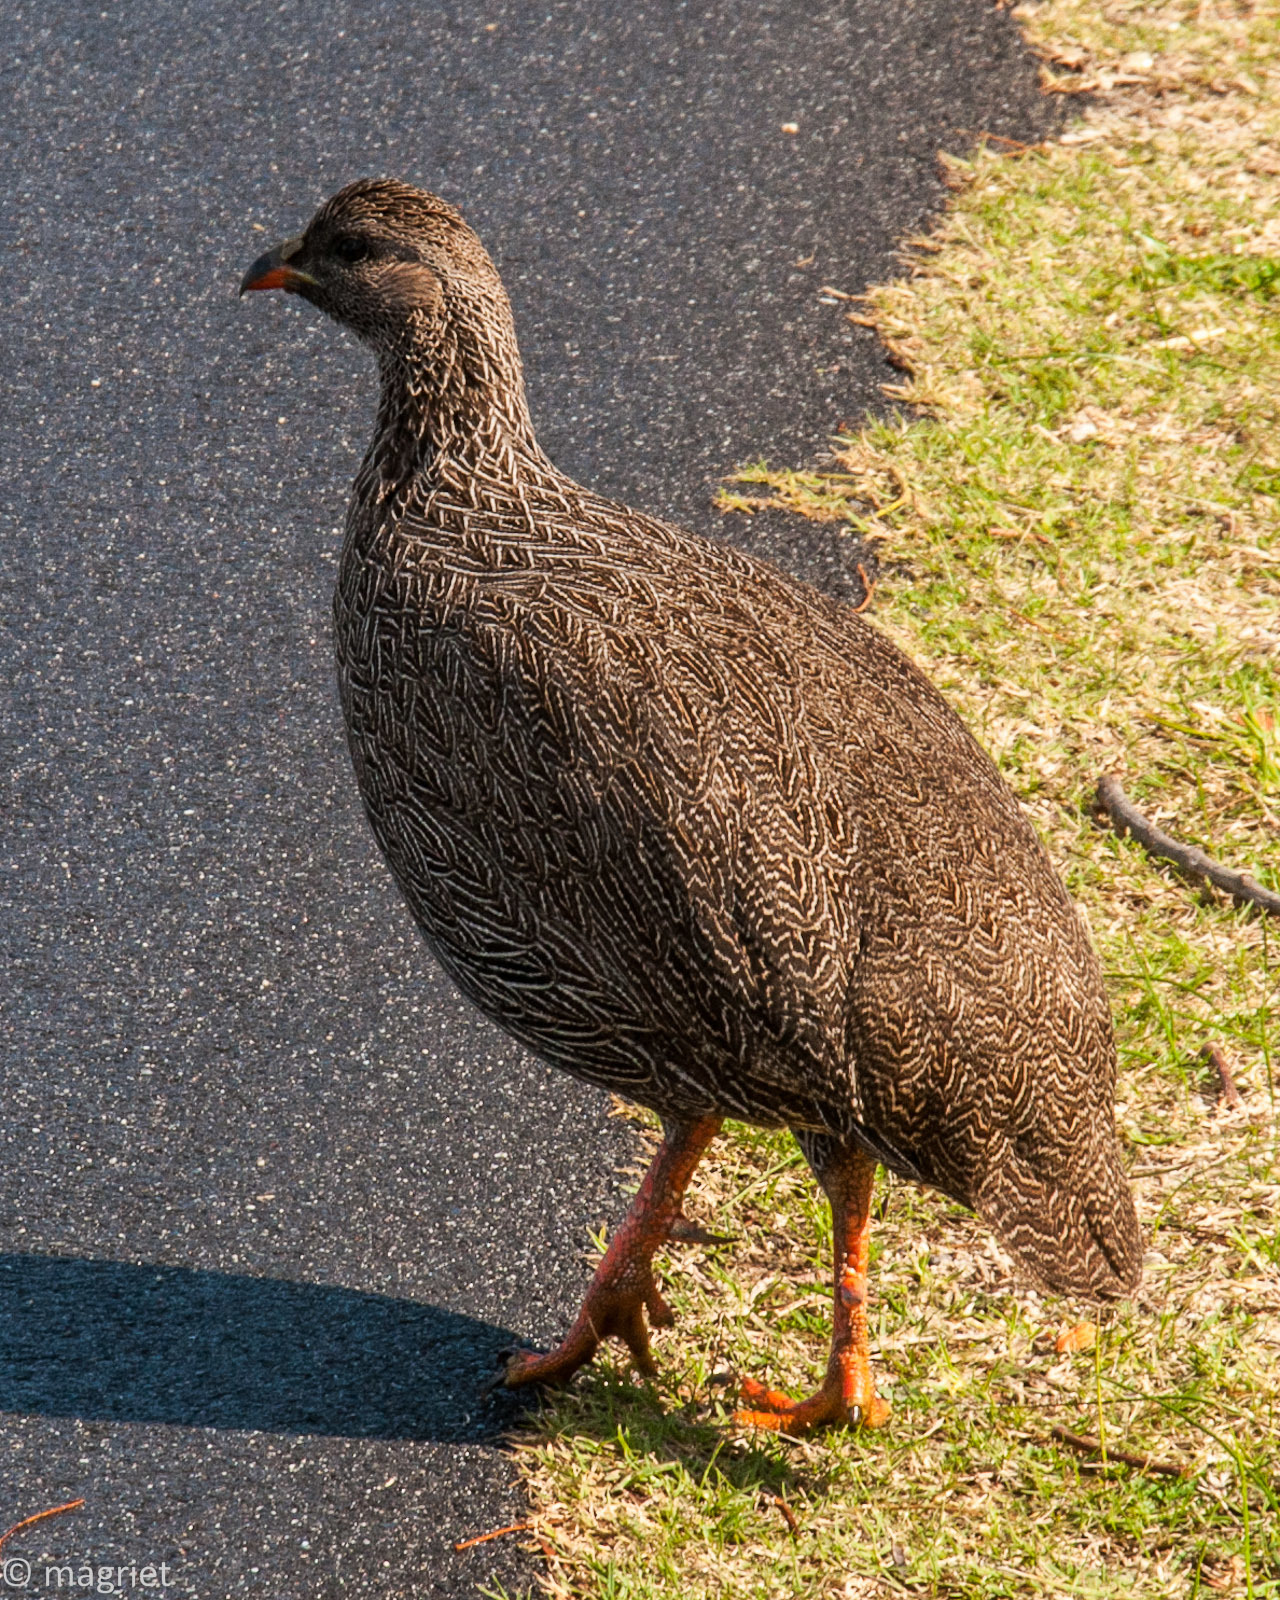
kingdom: Animalia
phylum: Chordata
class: Aves
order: Galliformes
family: Phasianidae
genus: Pternistis
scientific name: Pternistis capensis
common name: Cape spurfowl
